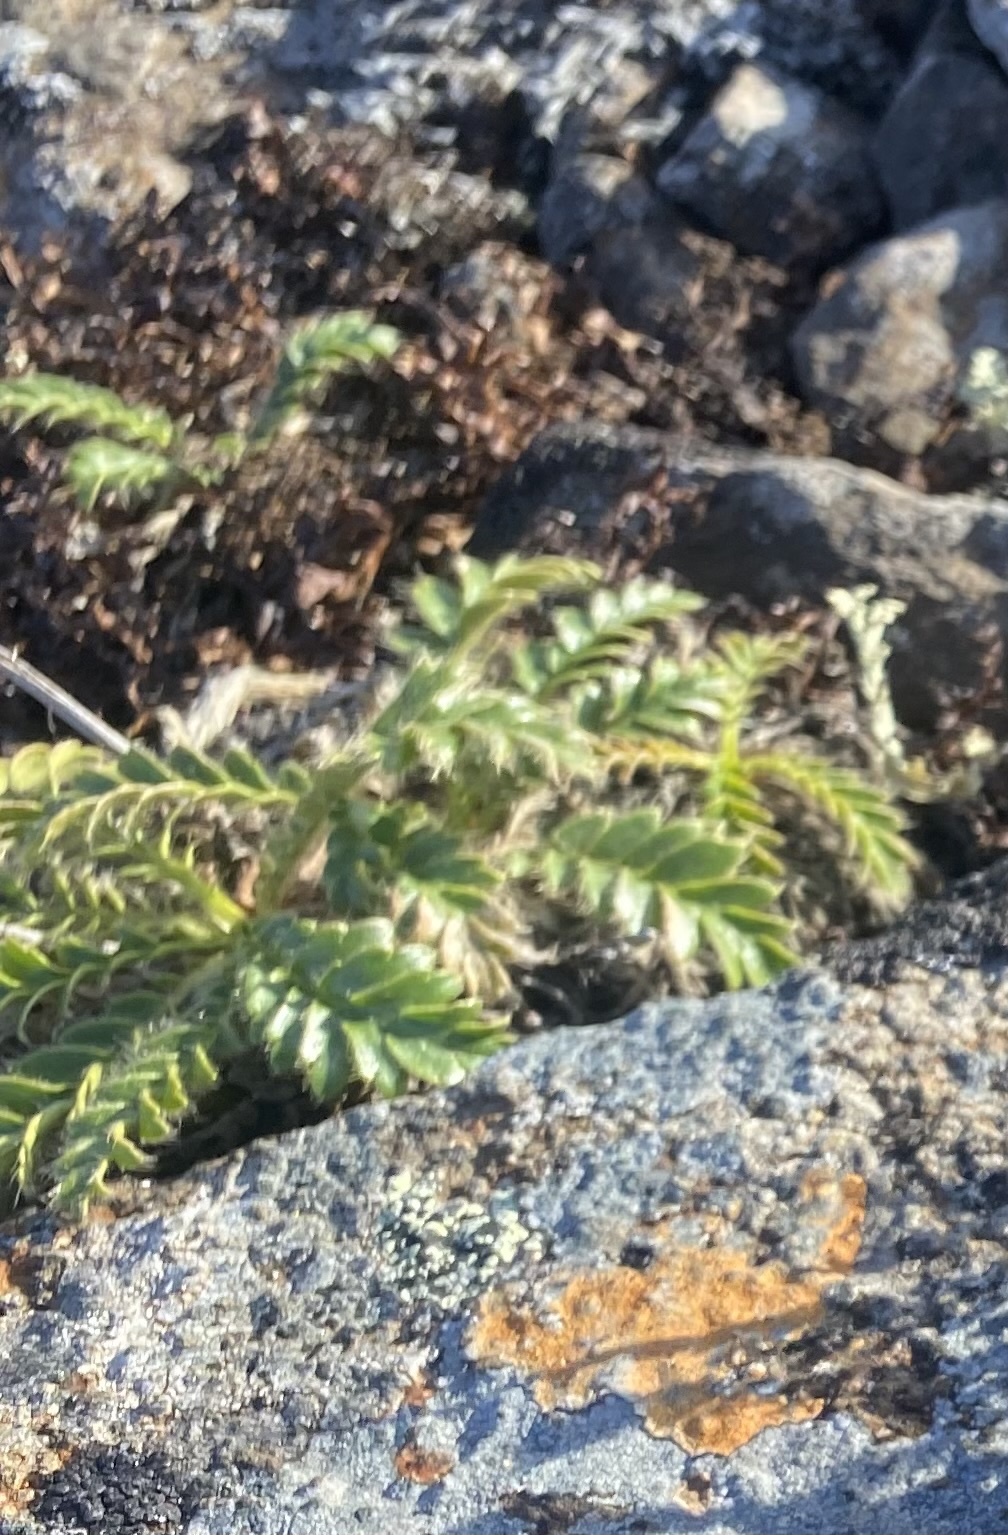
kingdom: Plantae
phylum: Tracheophyta
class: Magnoliopsida
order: Rosales
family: Rosaceae
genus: Geum
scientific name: Geum glaciale
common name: Glacier avens
